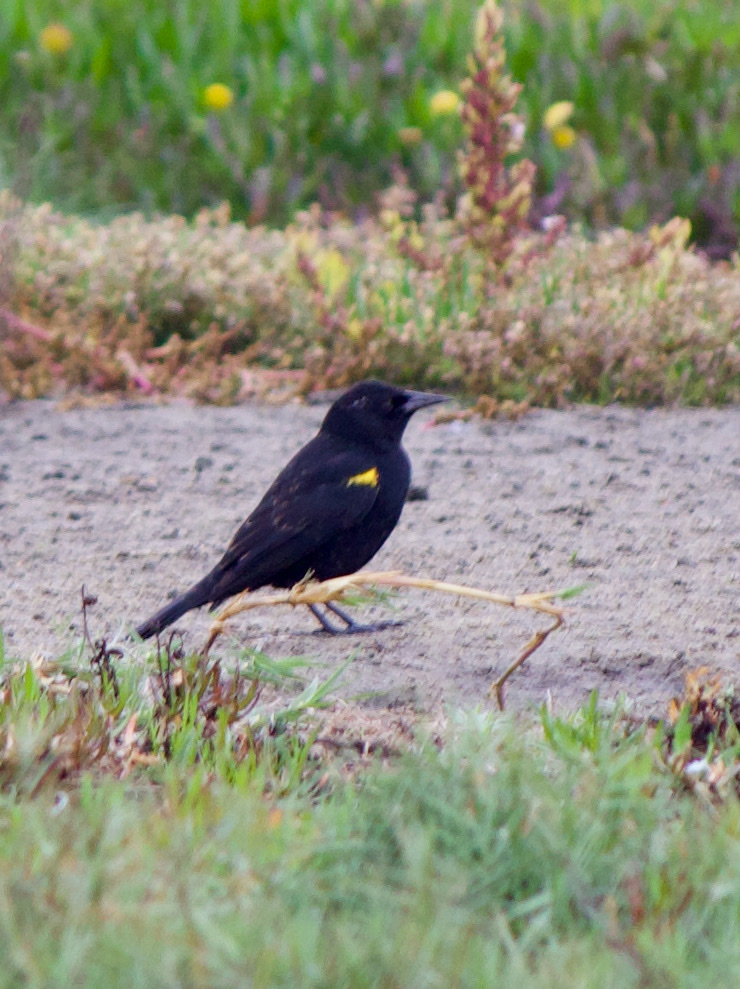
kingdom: Animalia
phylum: Chordata
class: Aves
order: Passeriformes
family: Icteridae
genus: Agelasticus
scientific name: Agelasticus thilius
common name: Yellow-winged blackbird
